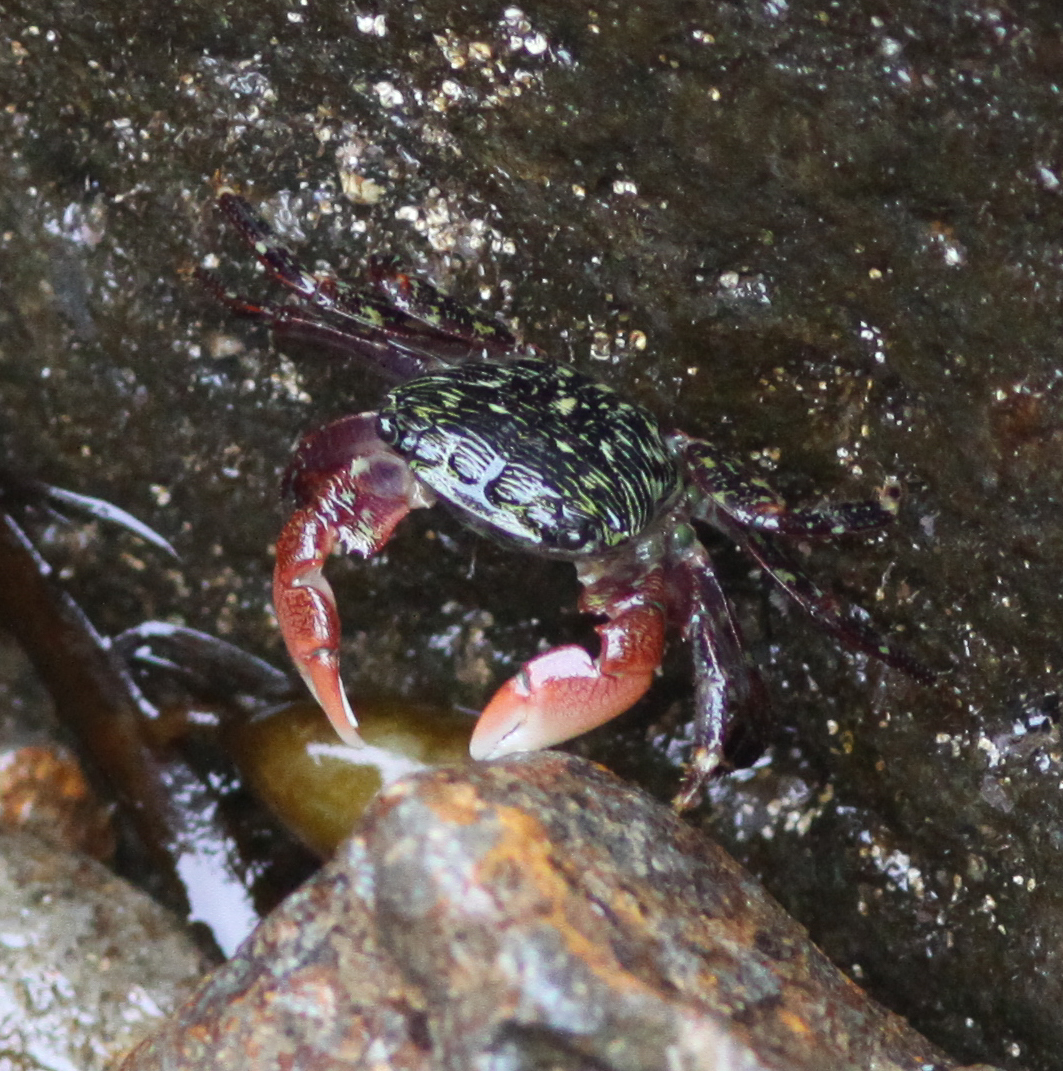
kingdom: Animalia
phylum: Arthropoda
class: Malacostraca
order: Decapoda
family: Grapsidae
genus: Pachygrapsus
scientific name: Pachygrapsus crassipes
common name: Striped shore crab
